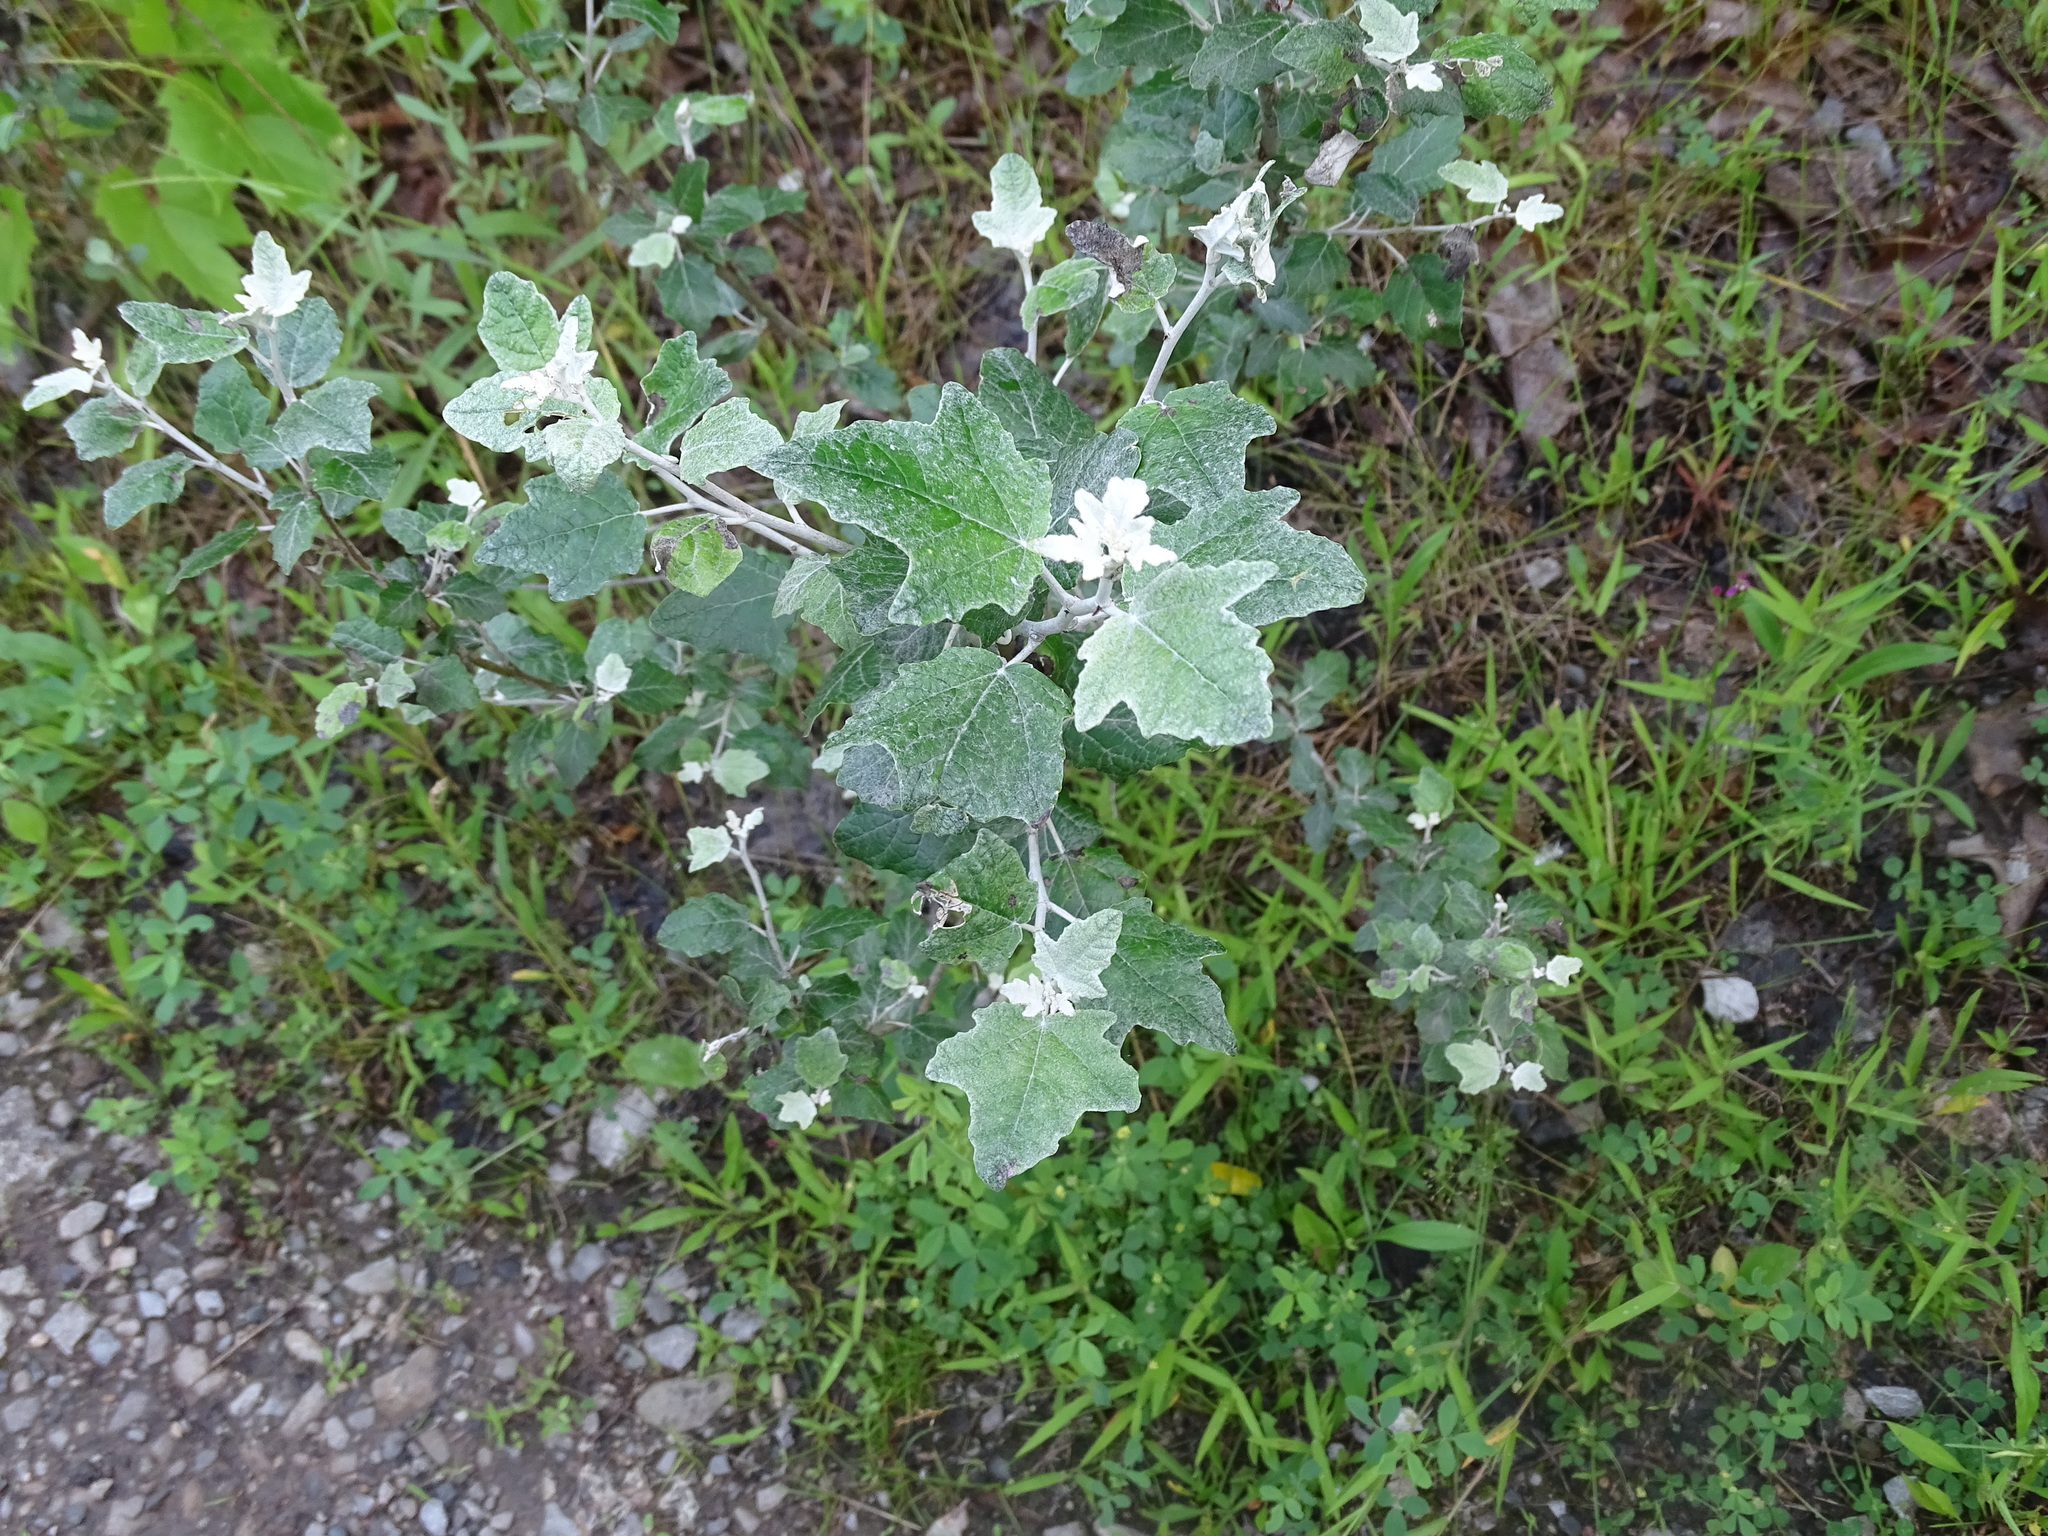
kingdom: Plantae
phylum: Tracheophyta
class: Magnoliopsida
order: Malpighiales
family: Salicaceae
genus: Populus
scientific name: Populus alba
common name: White poplar
